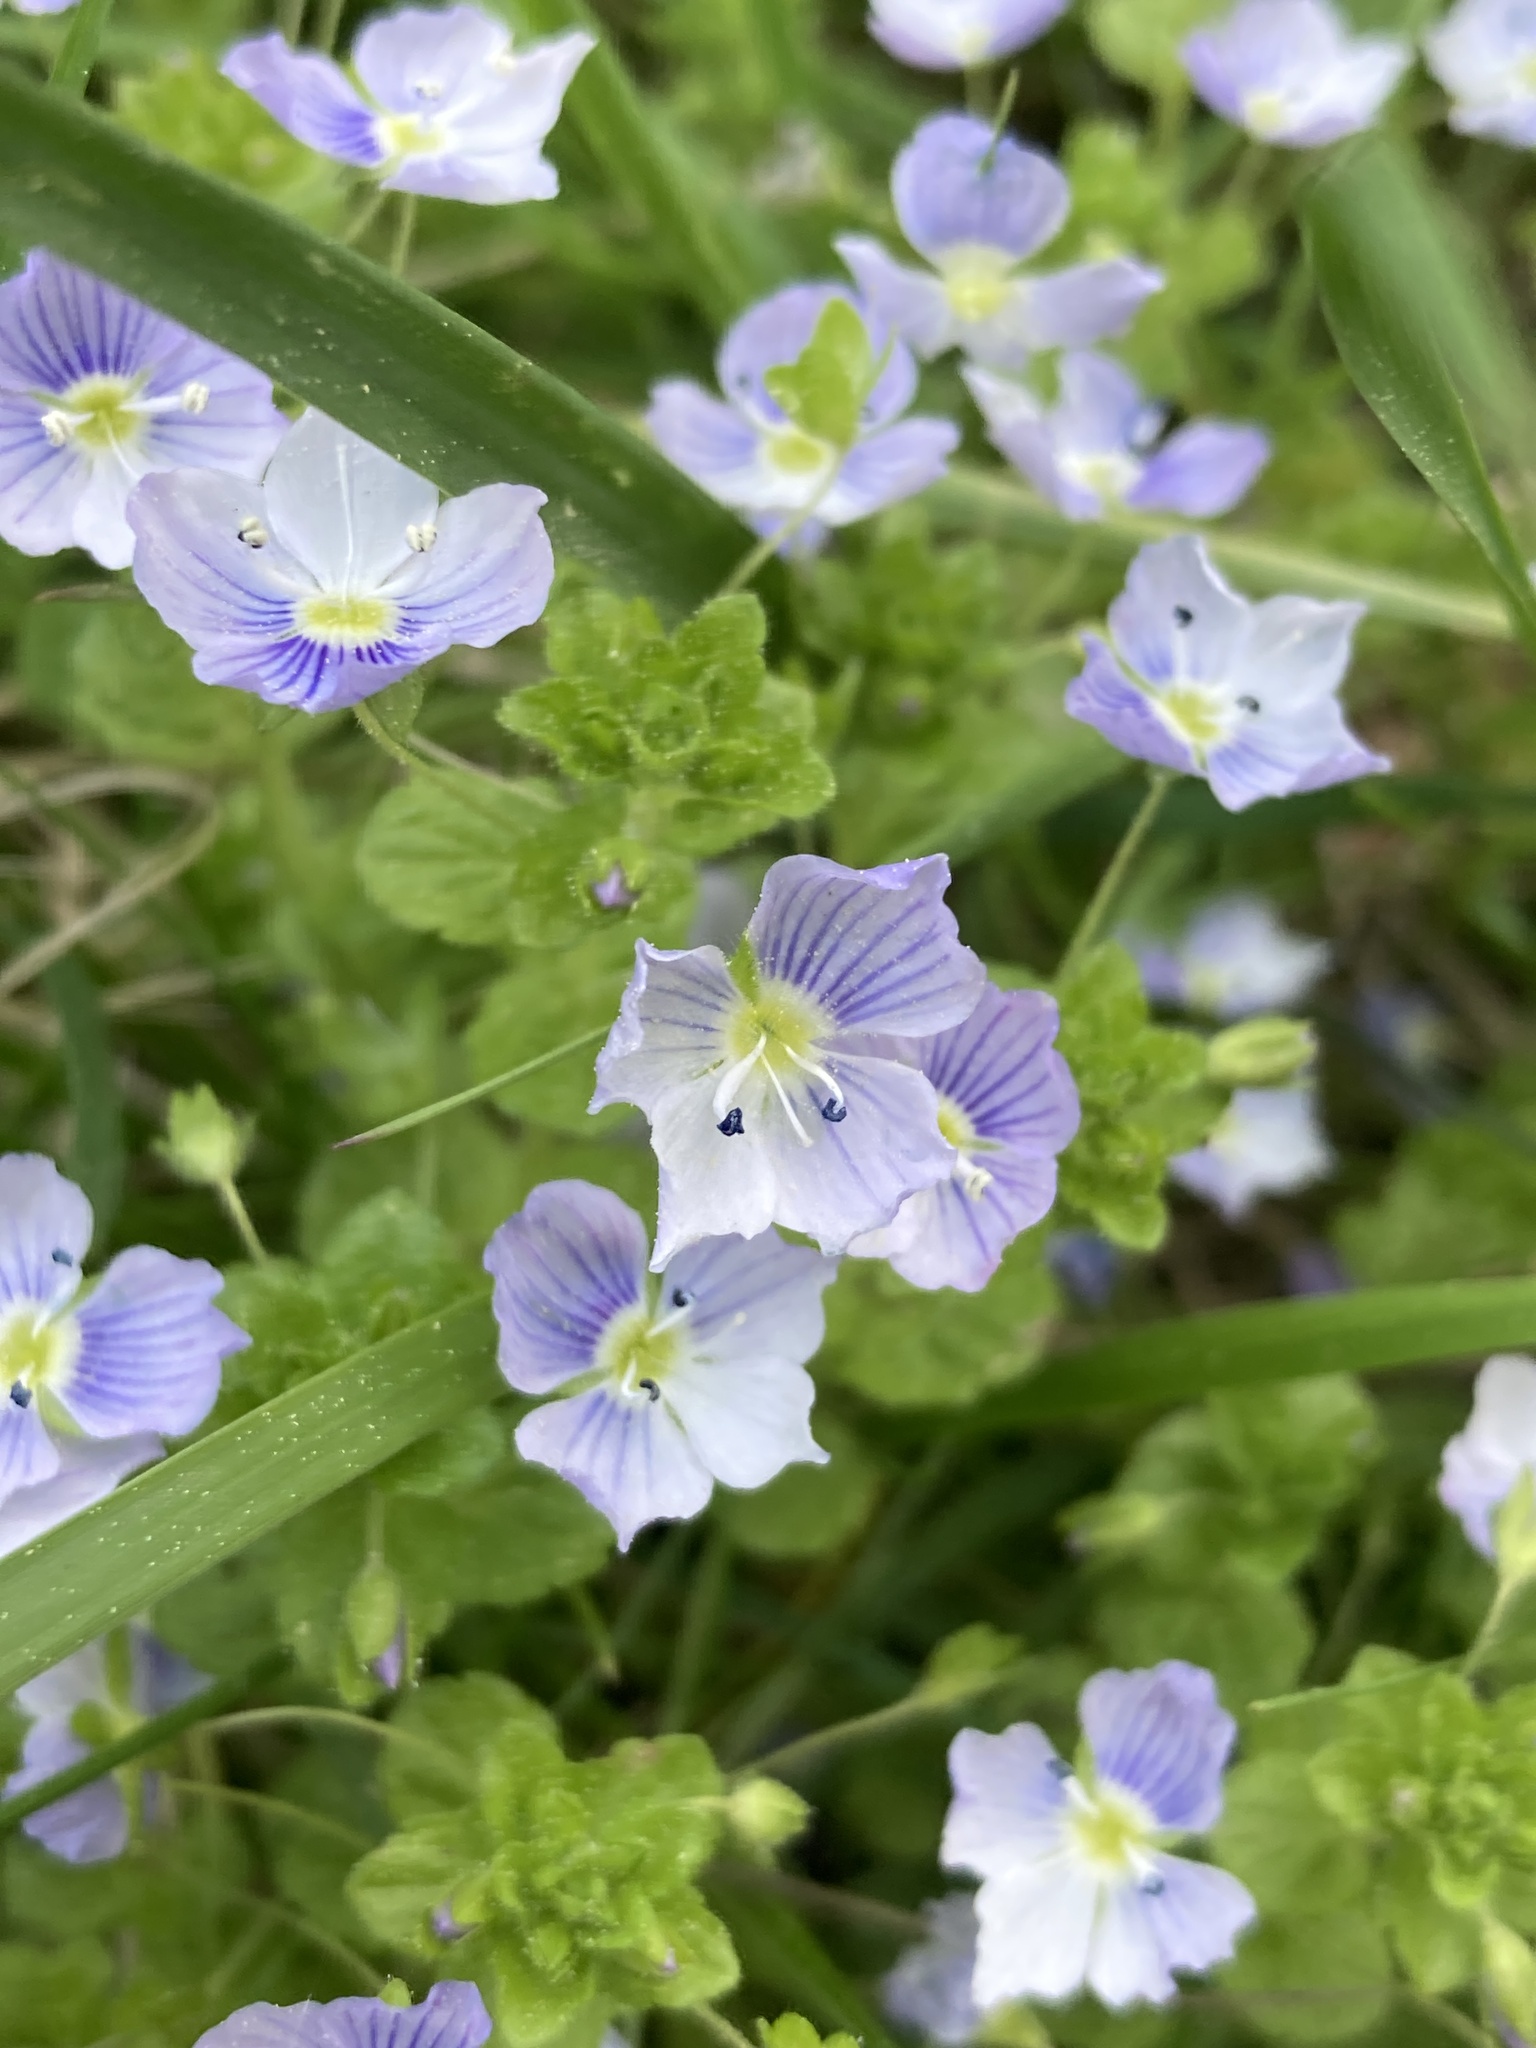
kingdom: Plantae
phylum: Tracheophyta
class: Magnoliopsida
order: Lamiales
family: Plantaginaceae
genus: Veronica
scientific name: Veronica filiformis
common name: Slender speedwell
